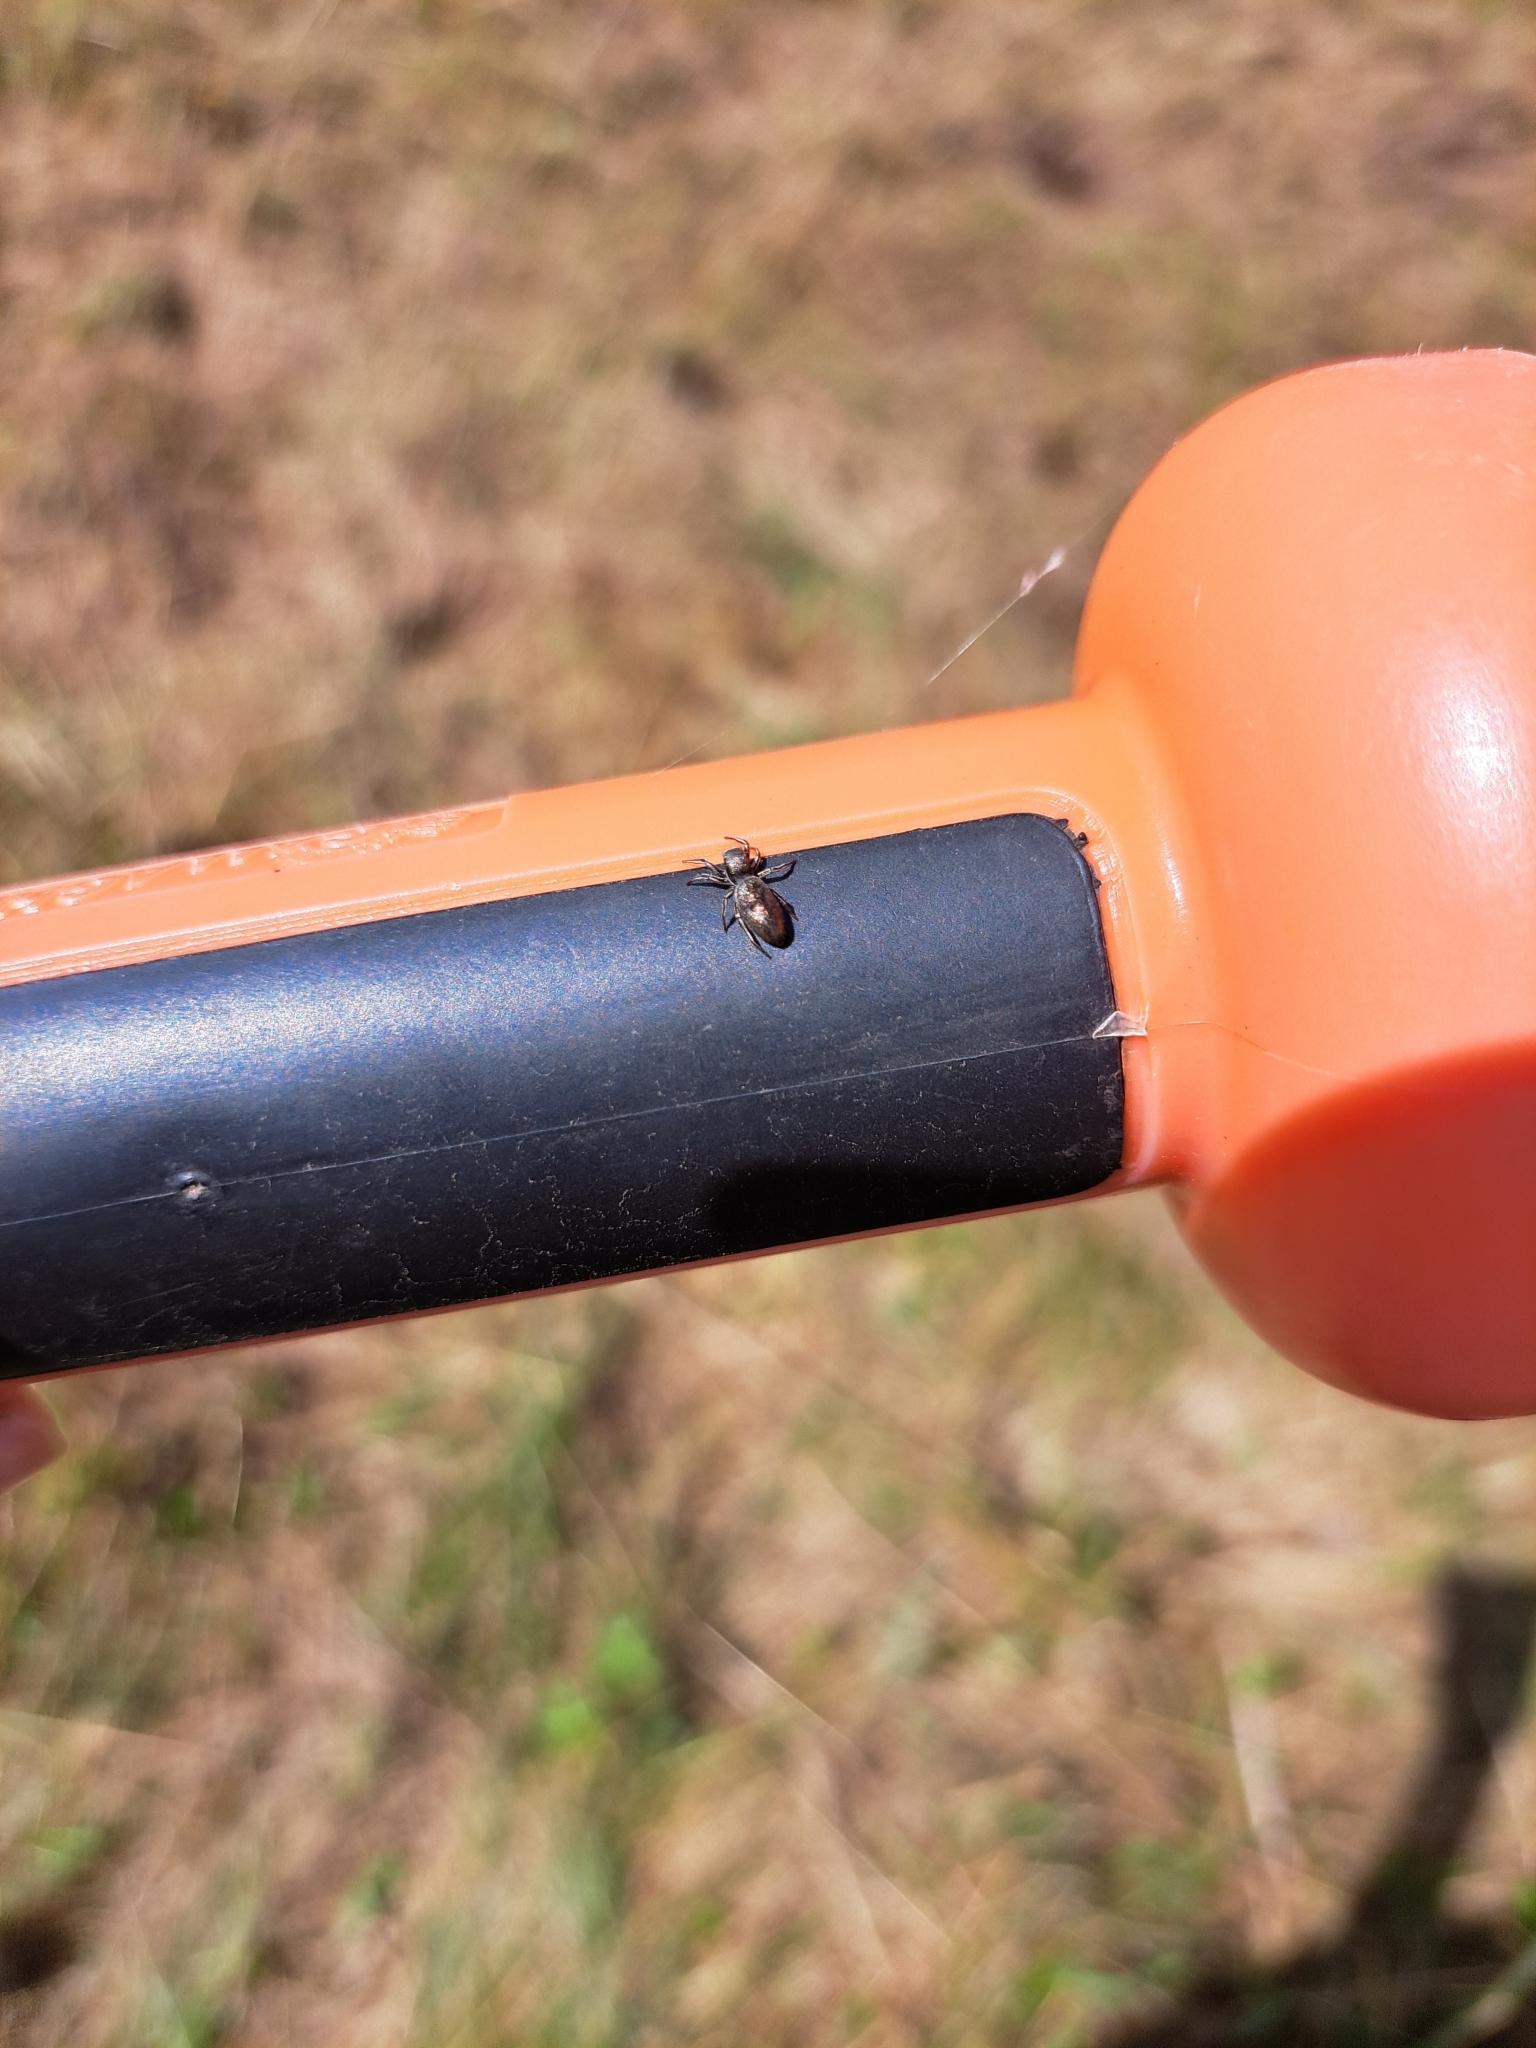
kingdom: Animalia
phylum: Arthropoda
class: Arachnida
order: Araneae
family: Salticidae
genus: Tutelina
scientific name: Tutelina elegans
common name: Thin-spined jumping spider
